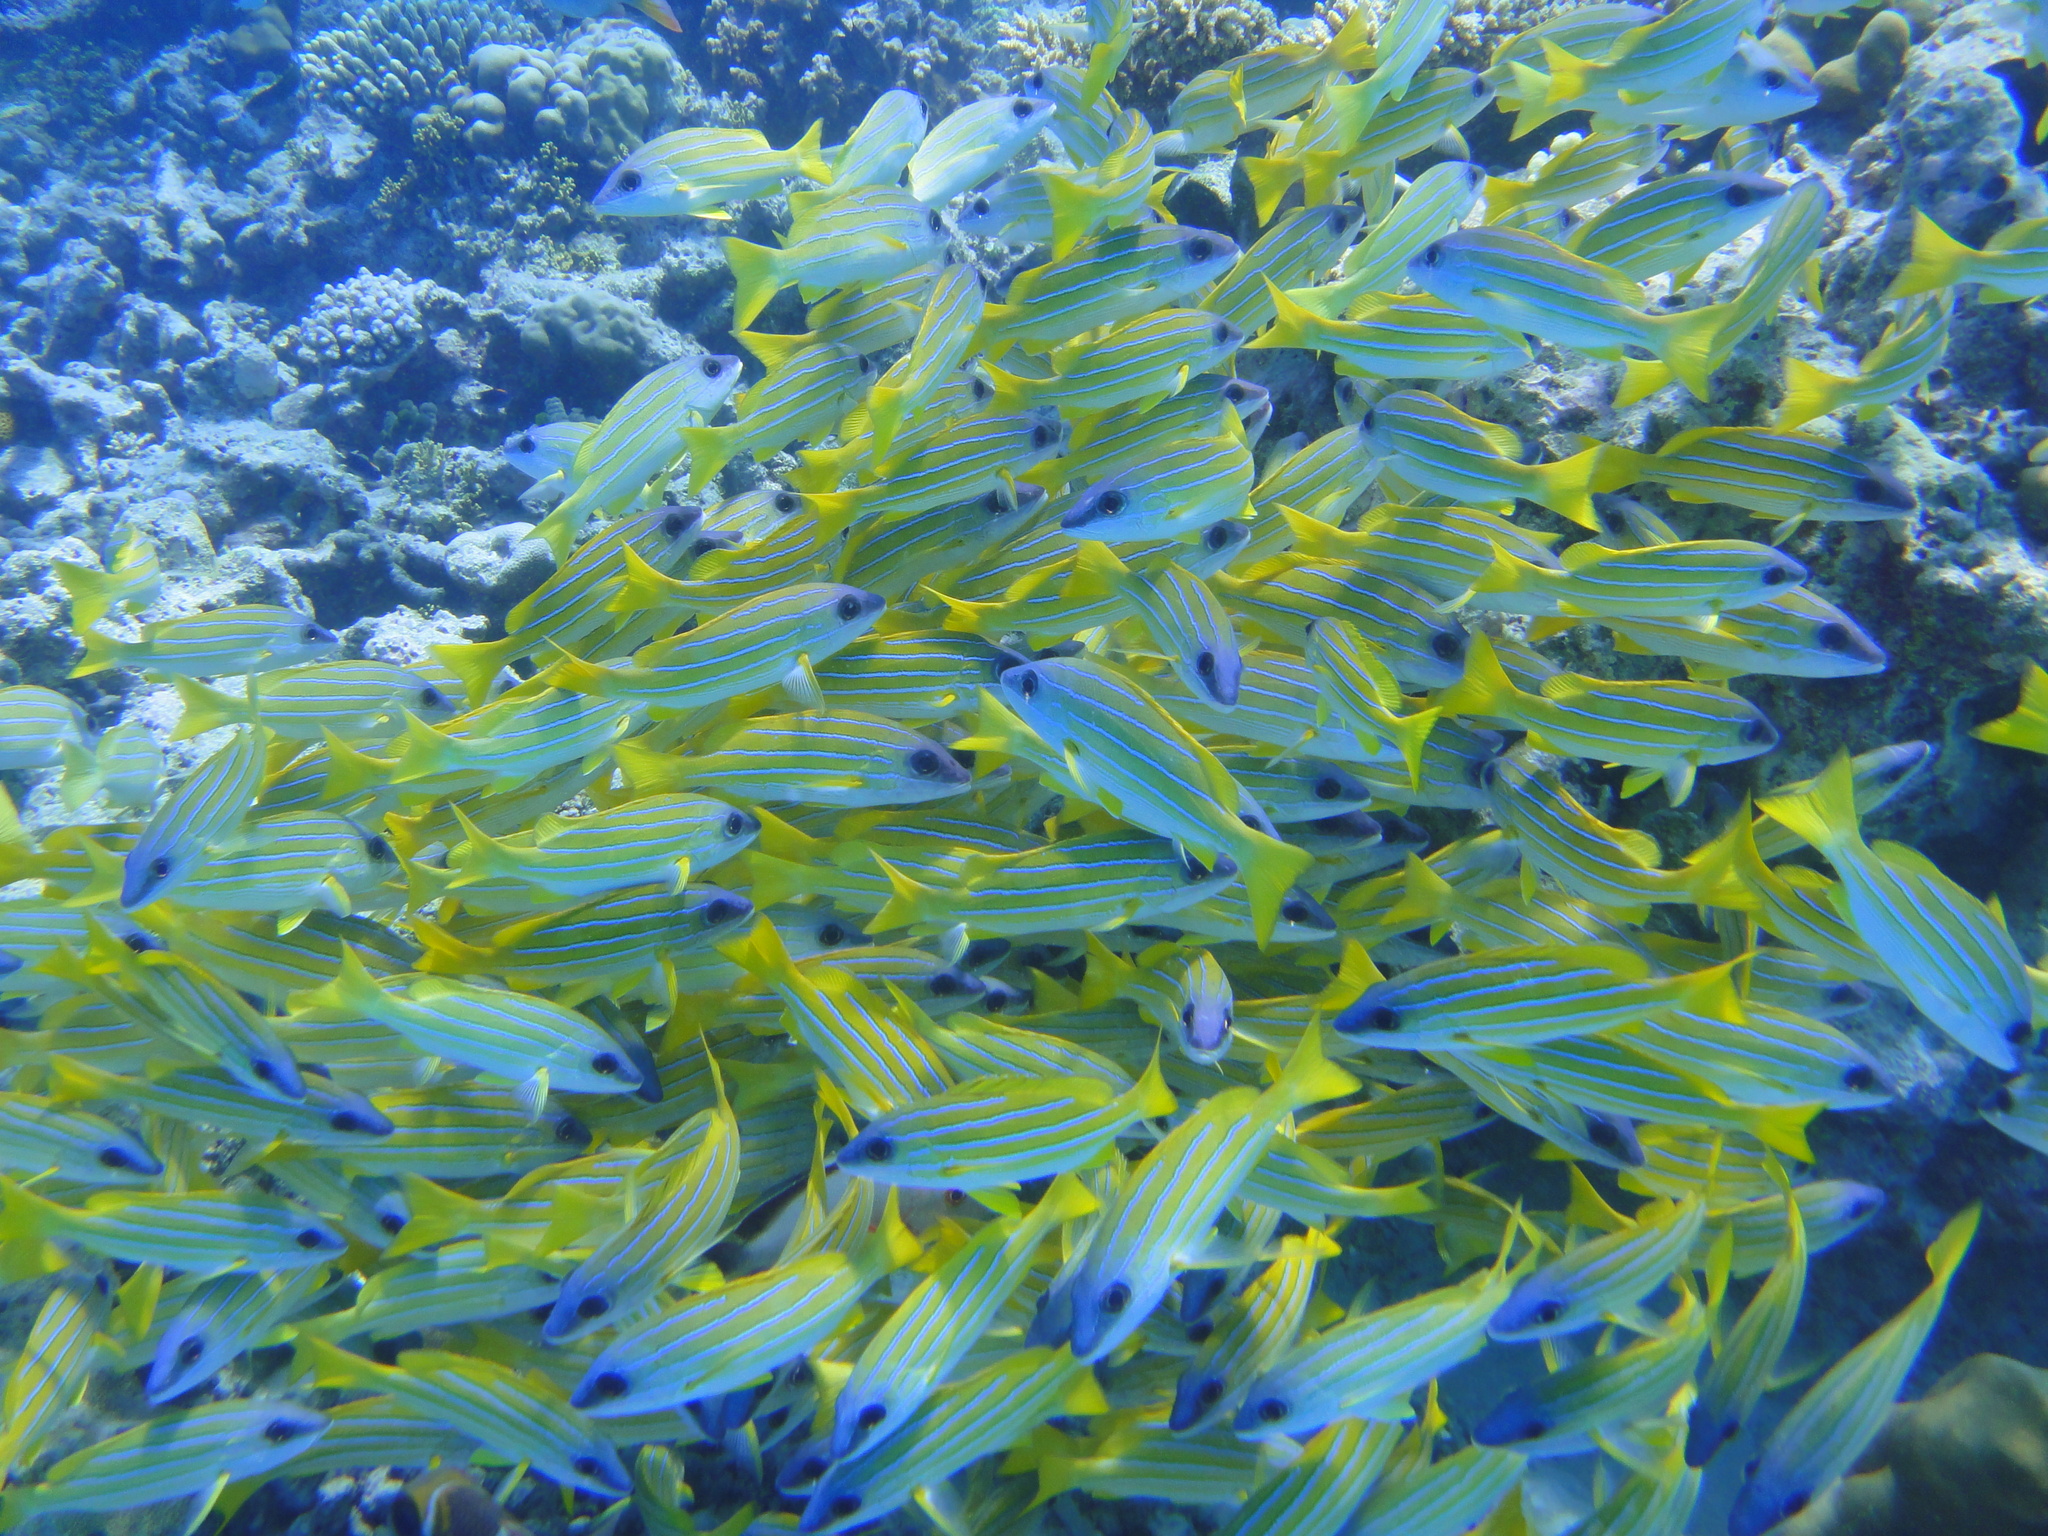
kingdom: Animalia
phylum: Chordata
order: Perciformes
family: Lutjanidae
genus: Lutjanus
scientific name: Lutjanus kasmira
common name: Common bluestripe snapper
